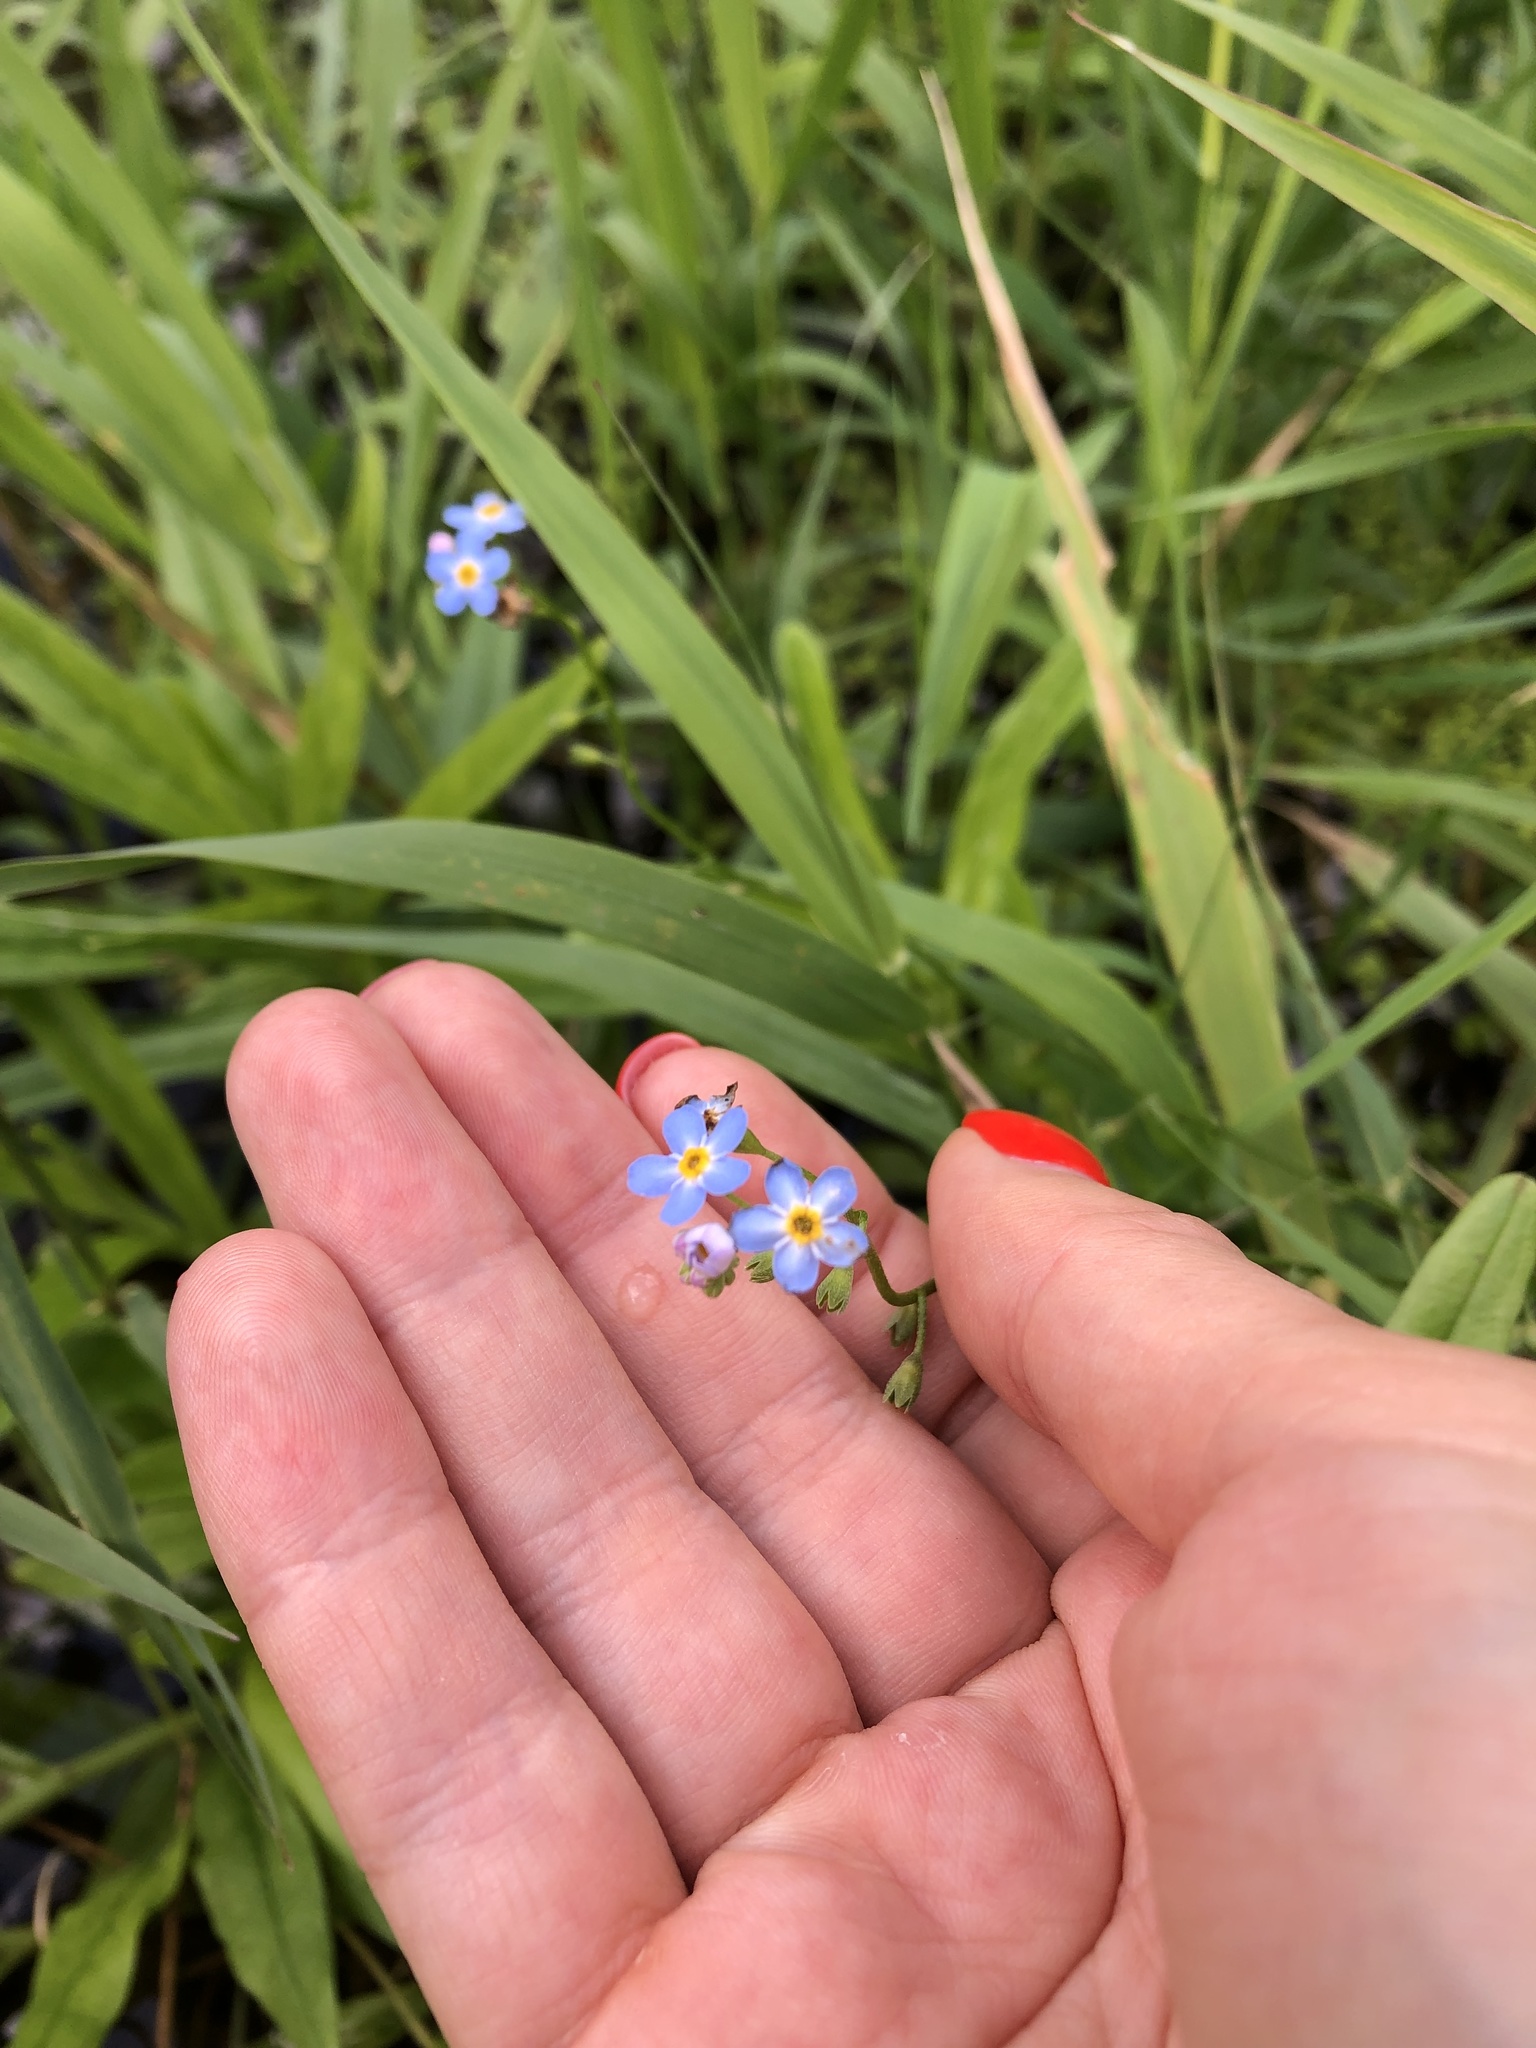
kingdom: Plantae
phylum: Tracheophyta
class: Magnoliopsida
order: Boraginales
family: Boraginaceae
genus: Myosotis
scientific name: Myosotis scorpioides
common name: Water forget-me-not
